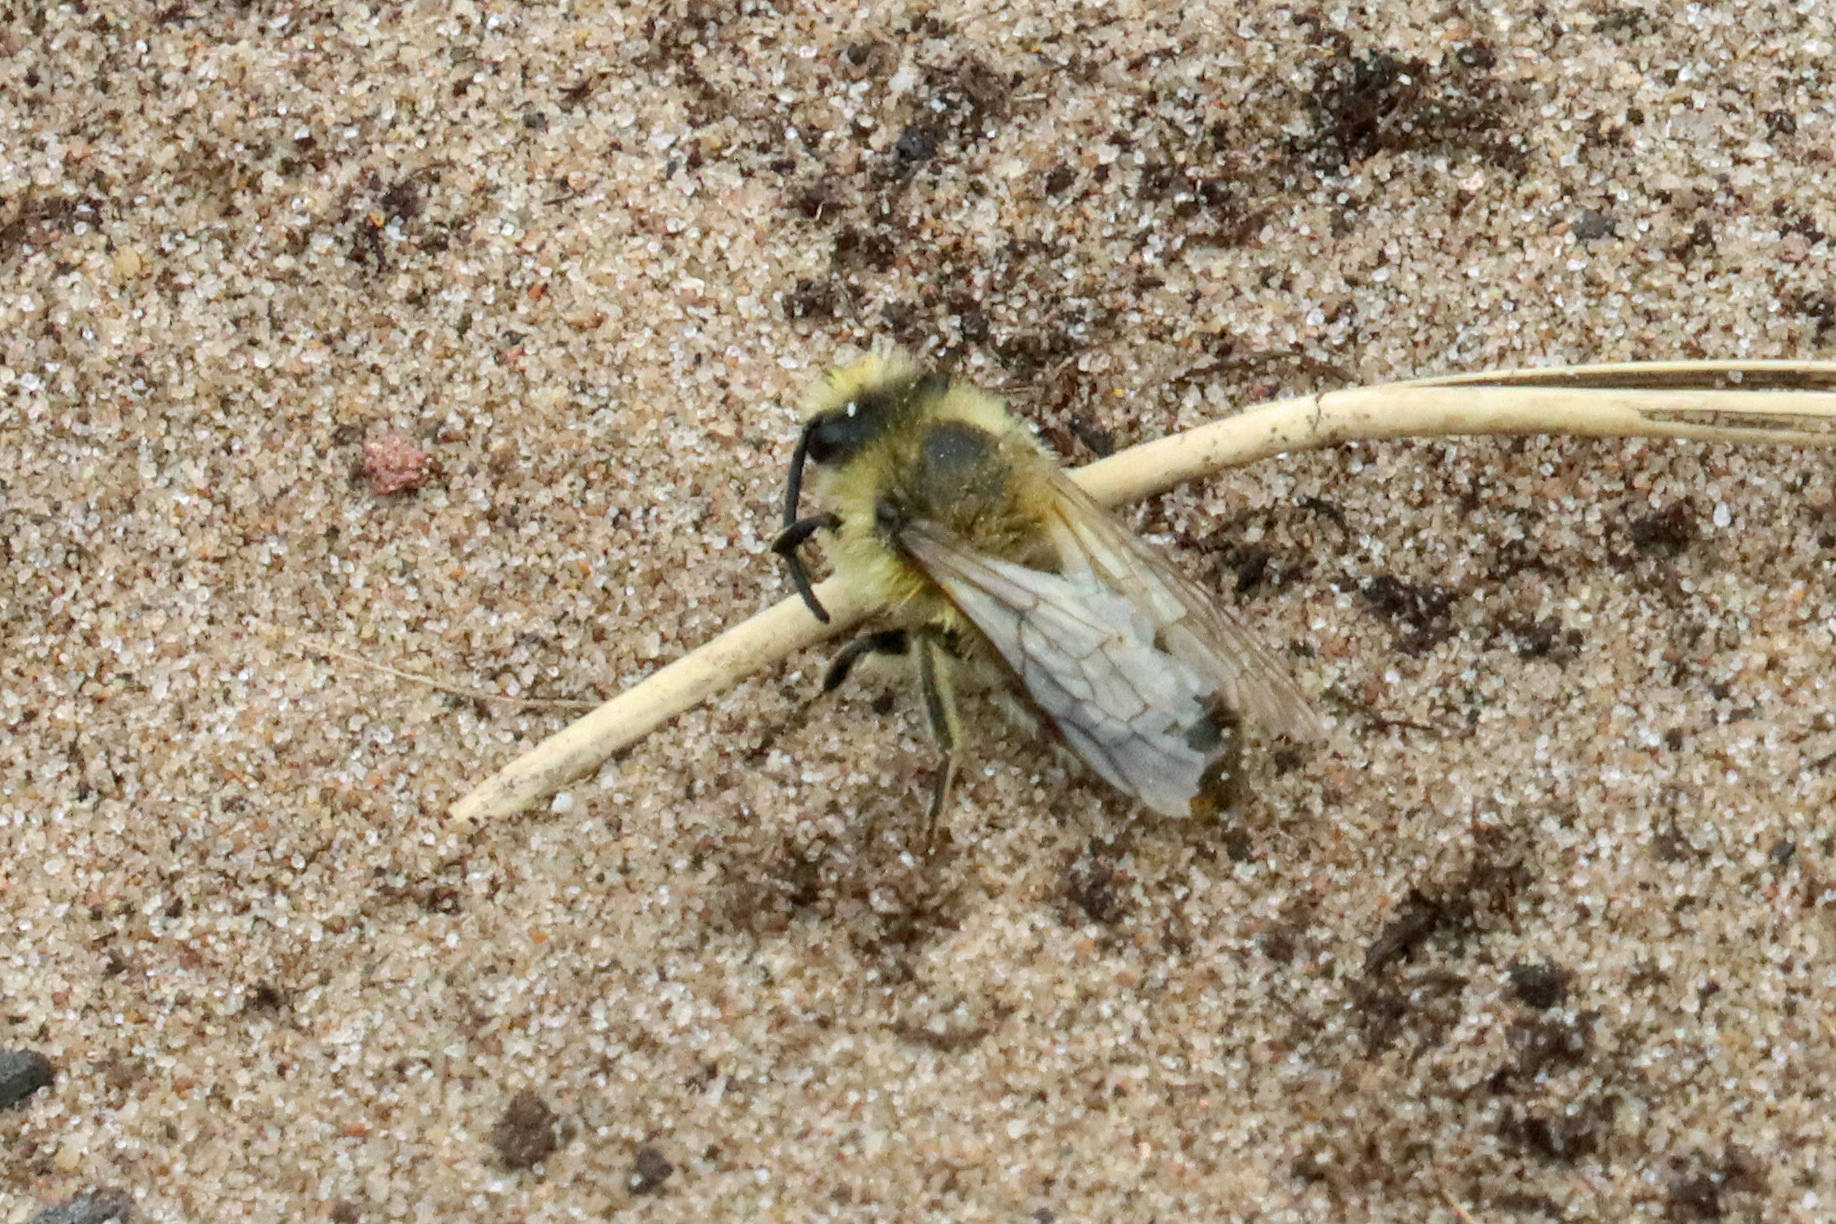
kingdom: Animalia
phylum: Arthropoda
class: Insecta
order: Hymenoptera
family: Colletidae
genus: Colletes
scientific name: Colletes cunicularius
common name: Early colletes
